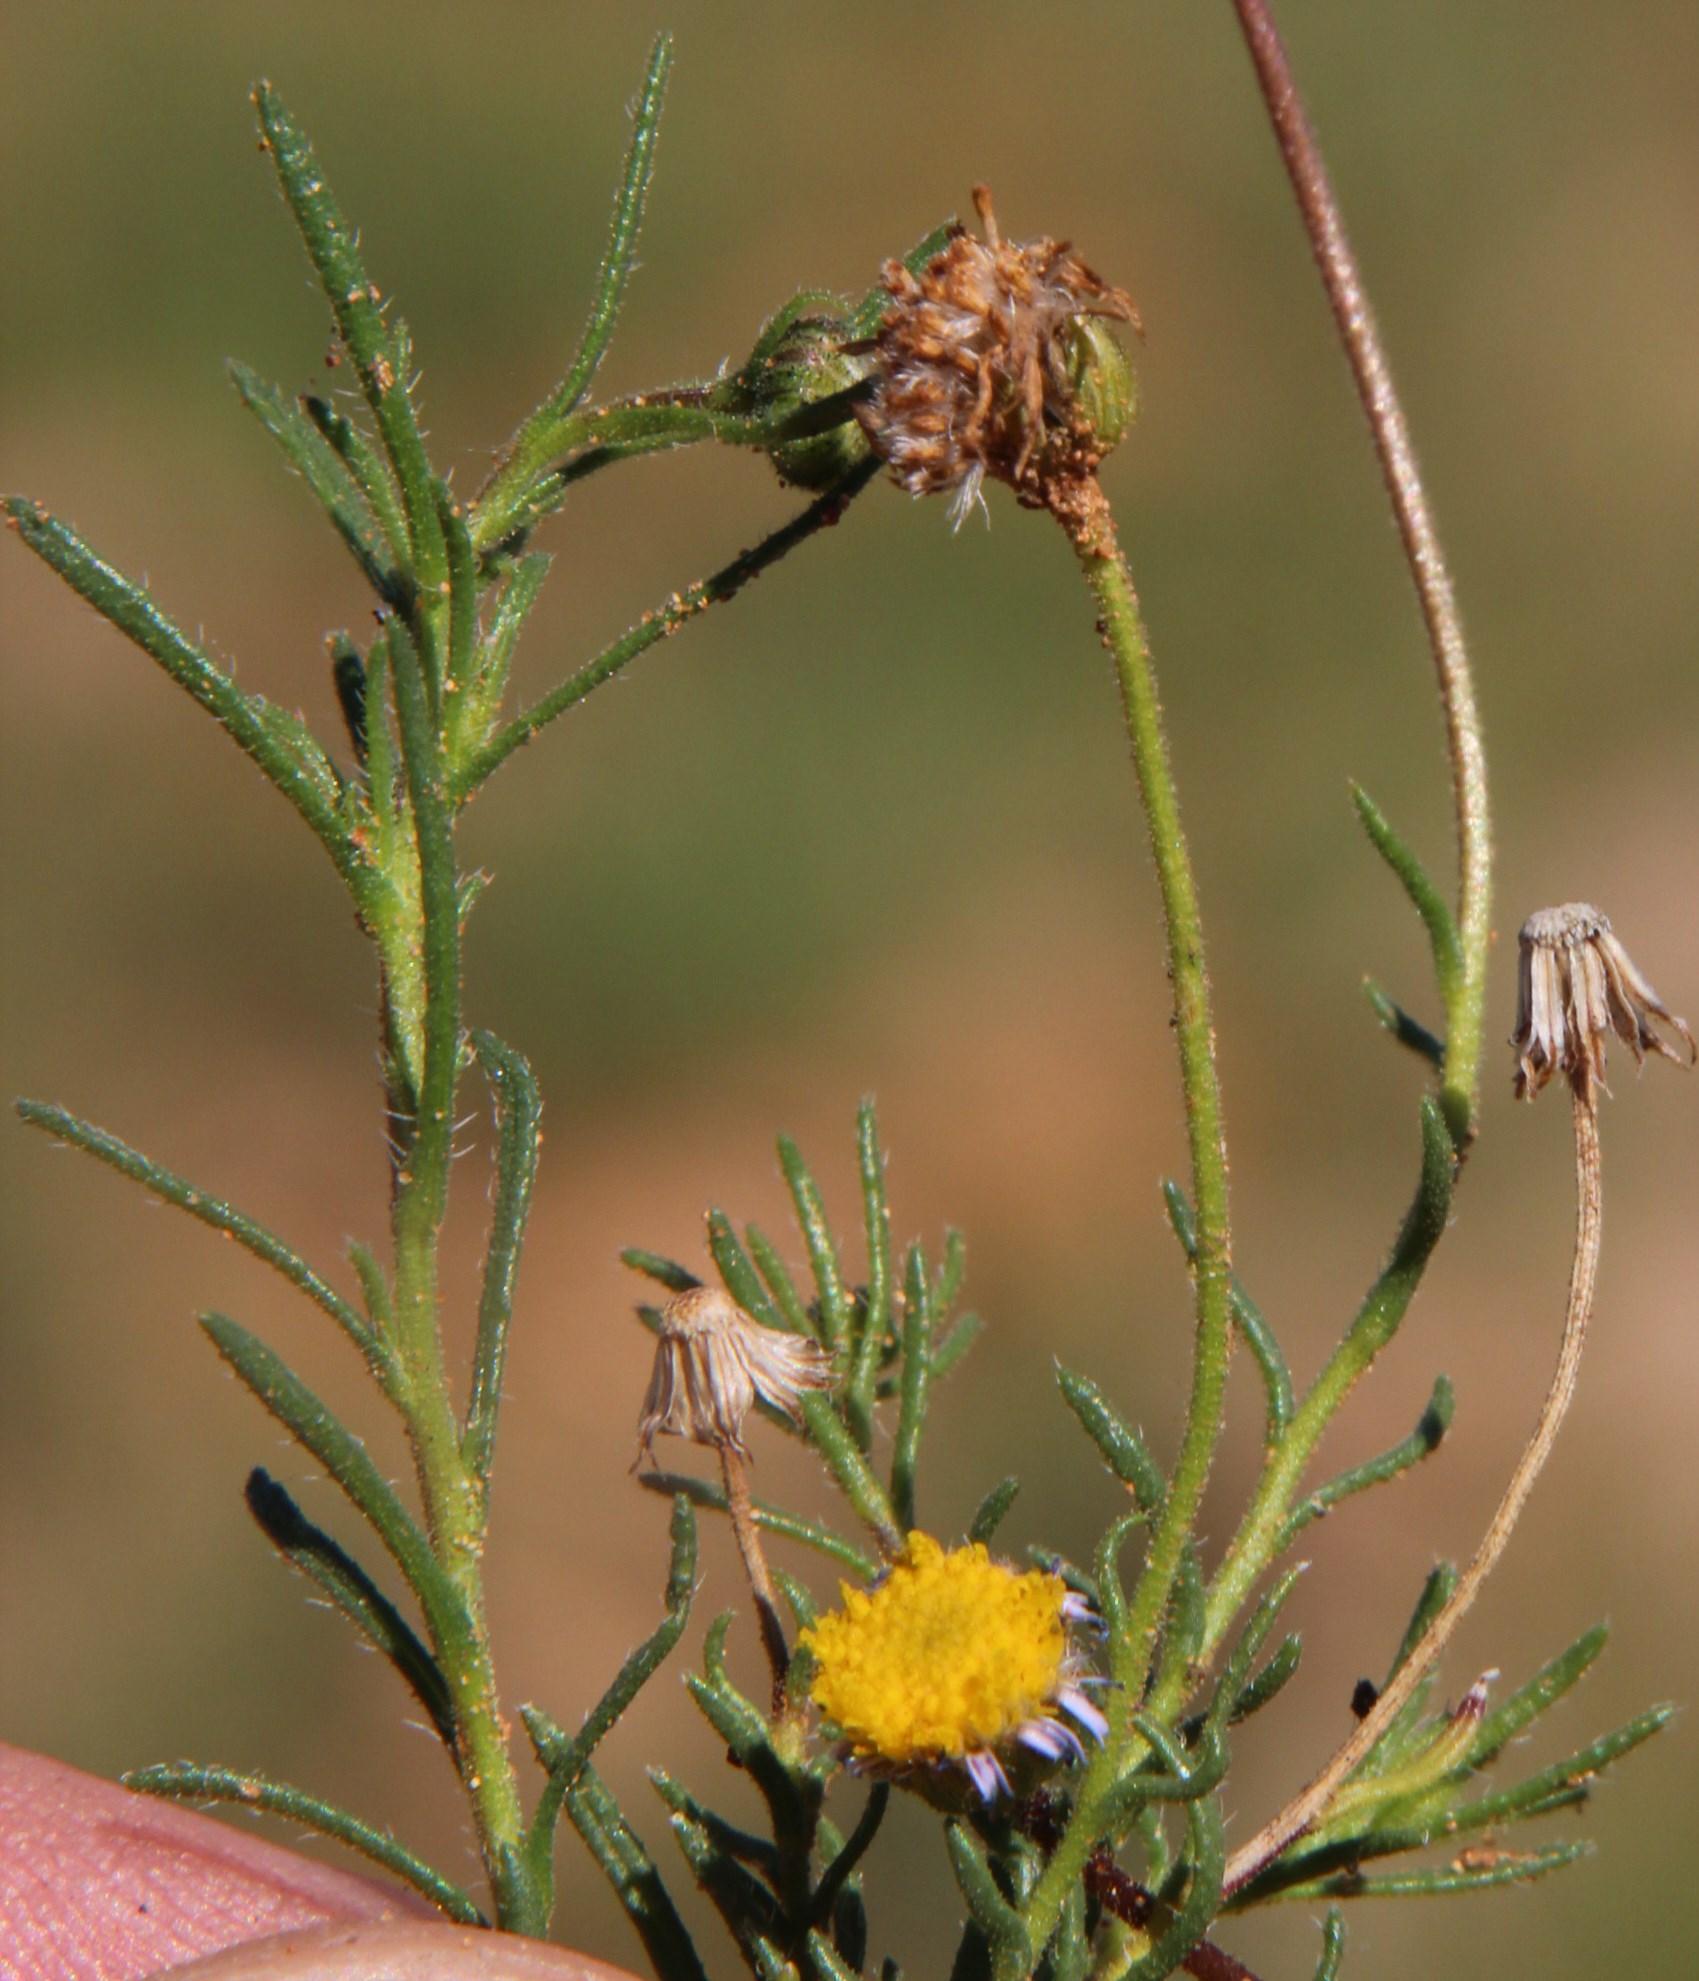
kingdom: Plantae
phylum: Tracheophyta
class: Magnoliopsida
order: Asterales
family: Asteraceae
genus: Felicia
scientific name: Felicia muricata
